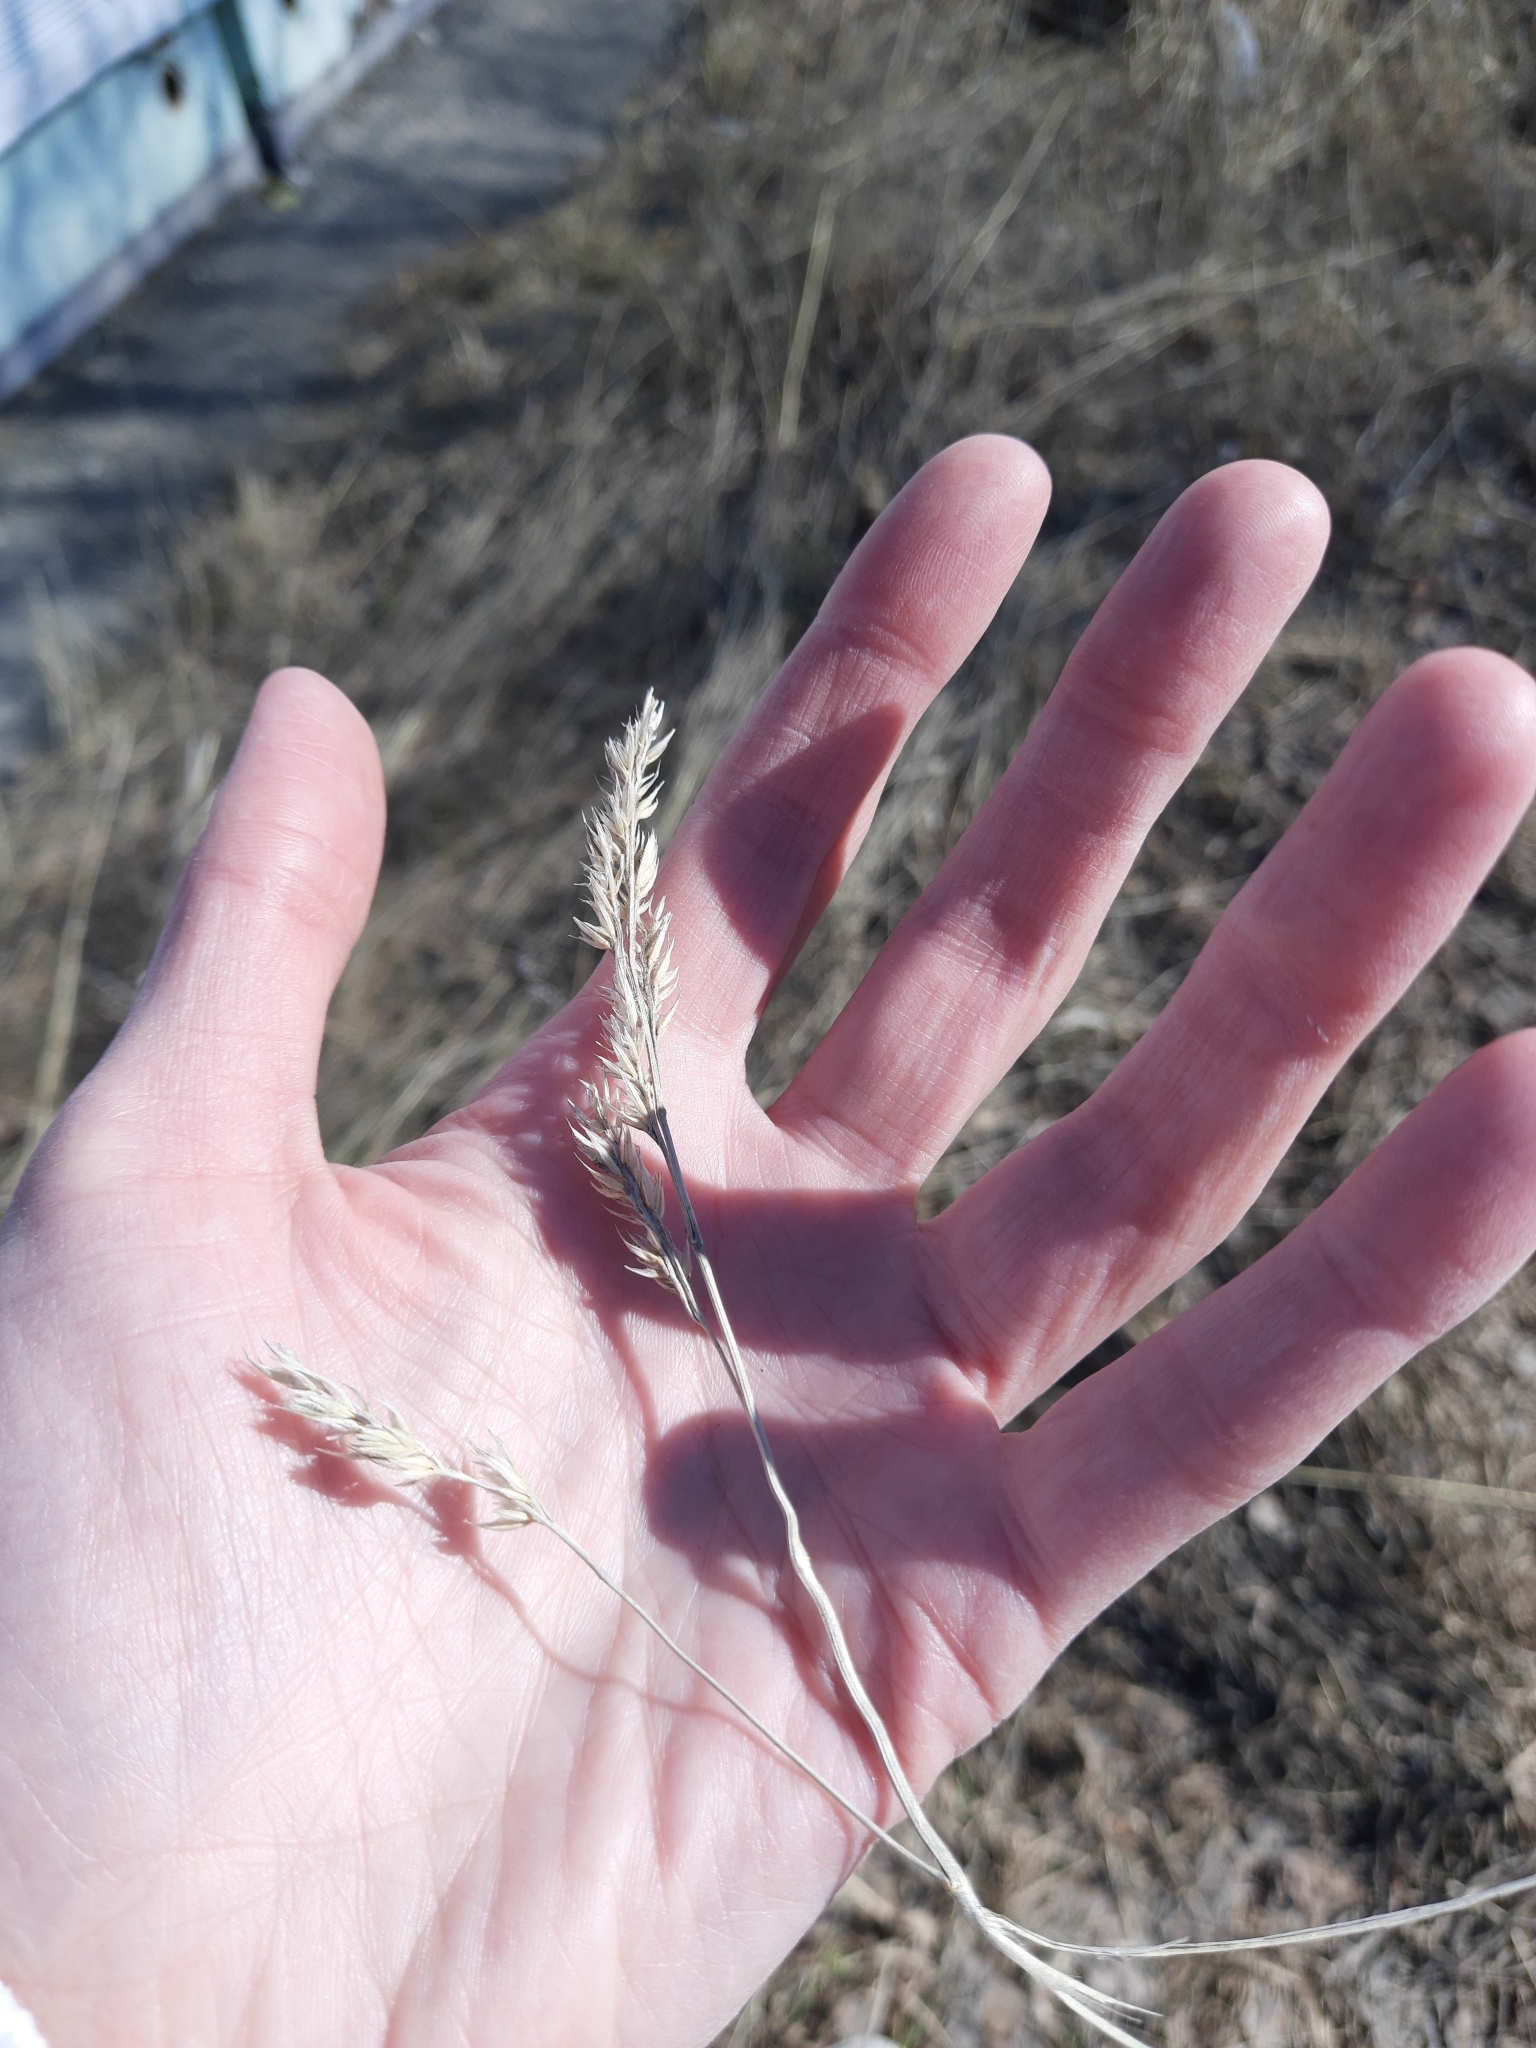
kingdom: Plantae
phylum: Tracheophyta
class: Liliopsida
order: Poales
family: Poaceae
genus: Dactylis
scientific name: Dactylis glomerata
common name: Orchardgrass
